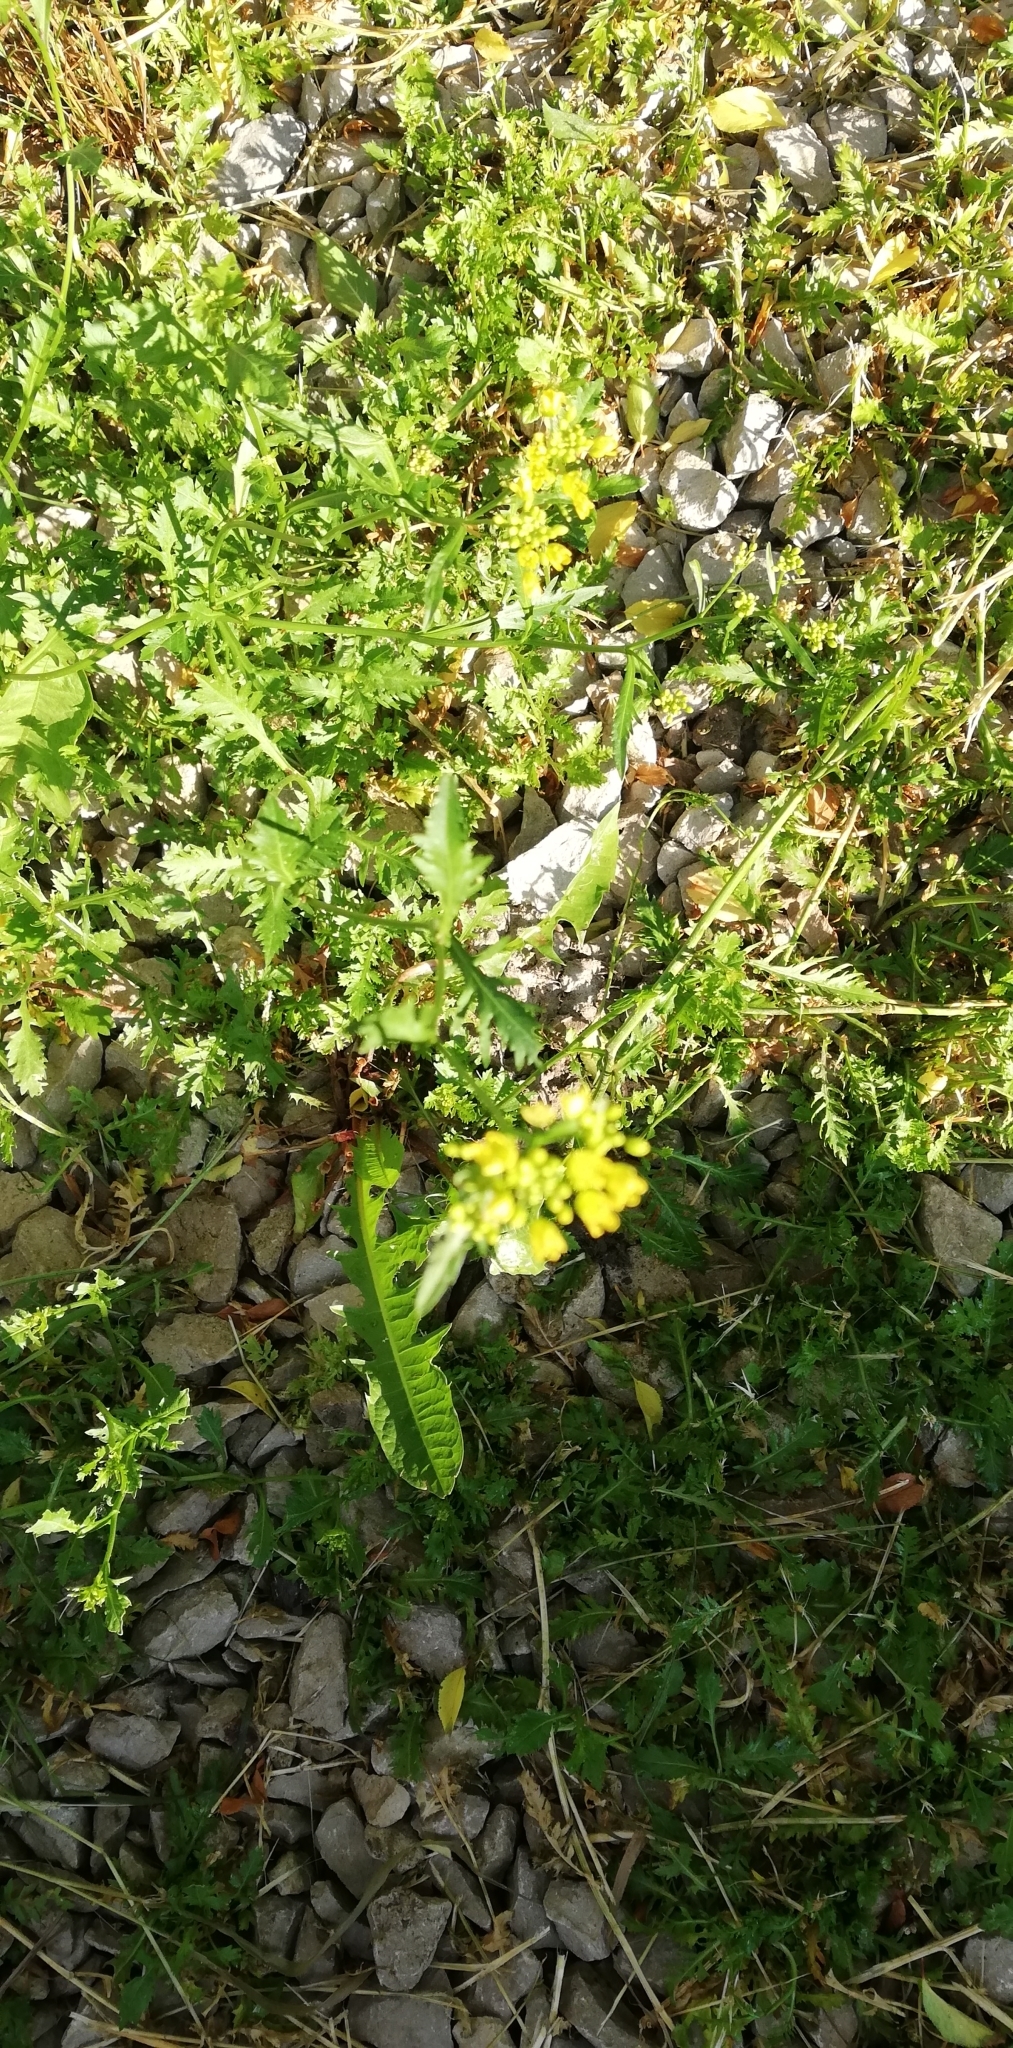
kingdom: Plantae
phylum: Tracheophyta
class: Magnoliopsida
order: Brassicales
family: Brassicaceae
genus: Rorippa
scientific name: Rorippa anceps
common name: Rorippa
